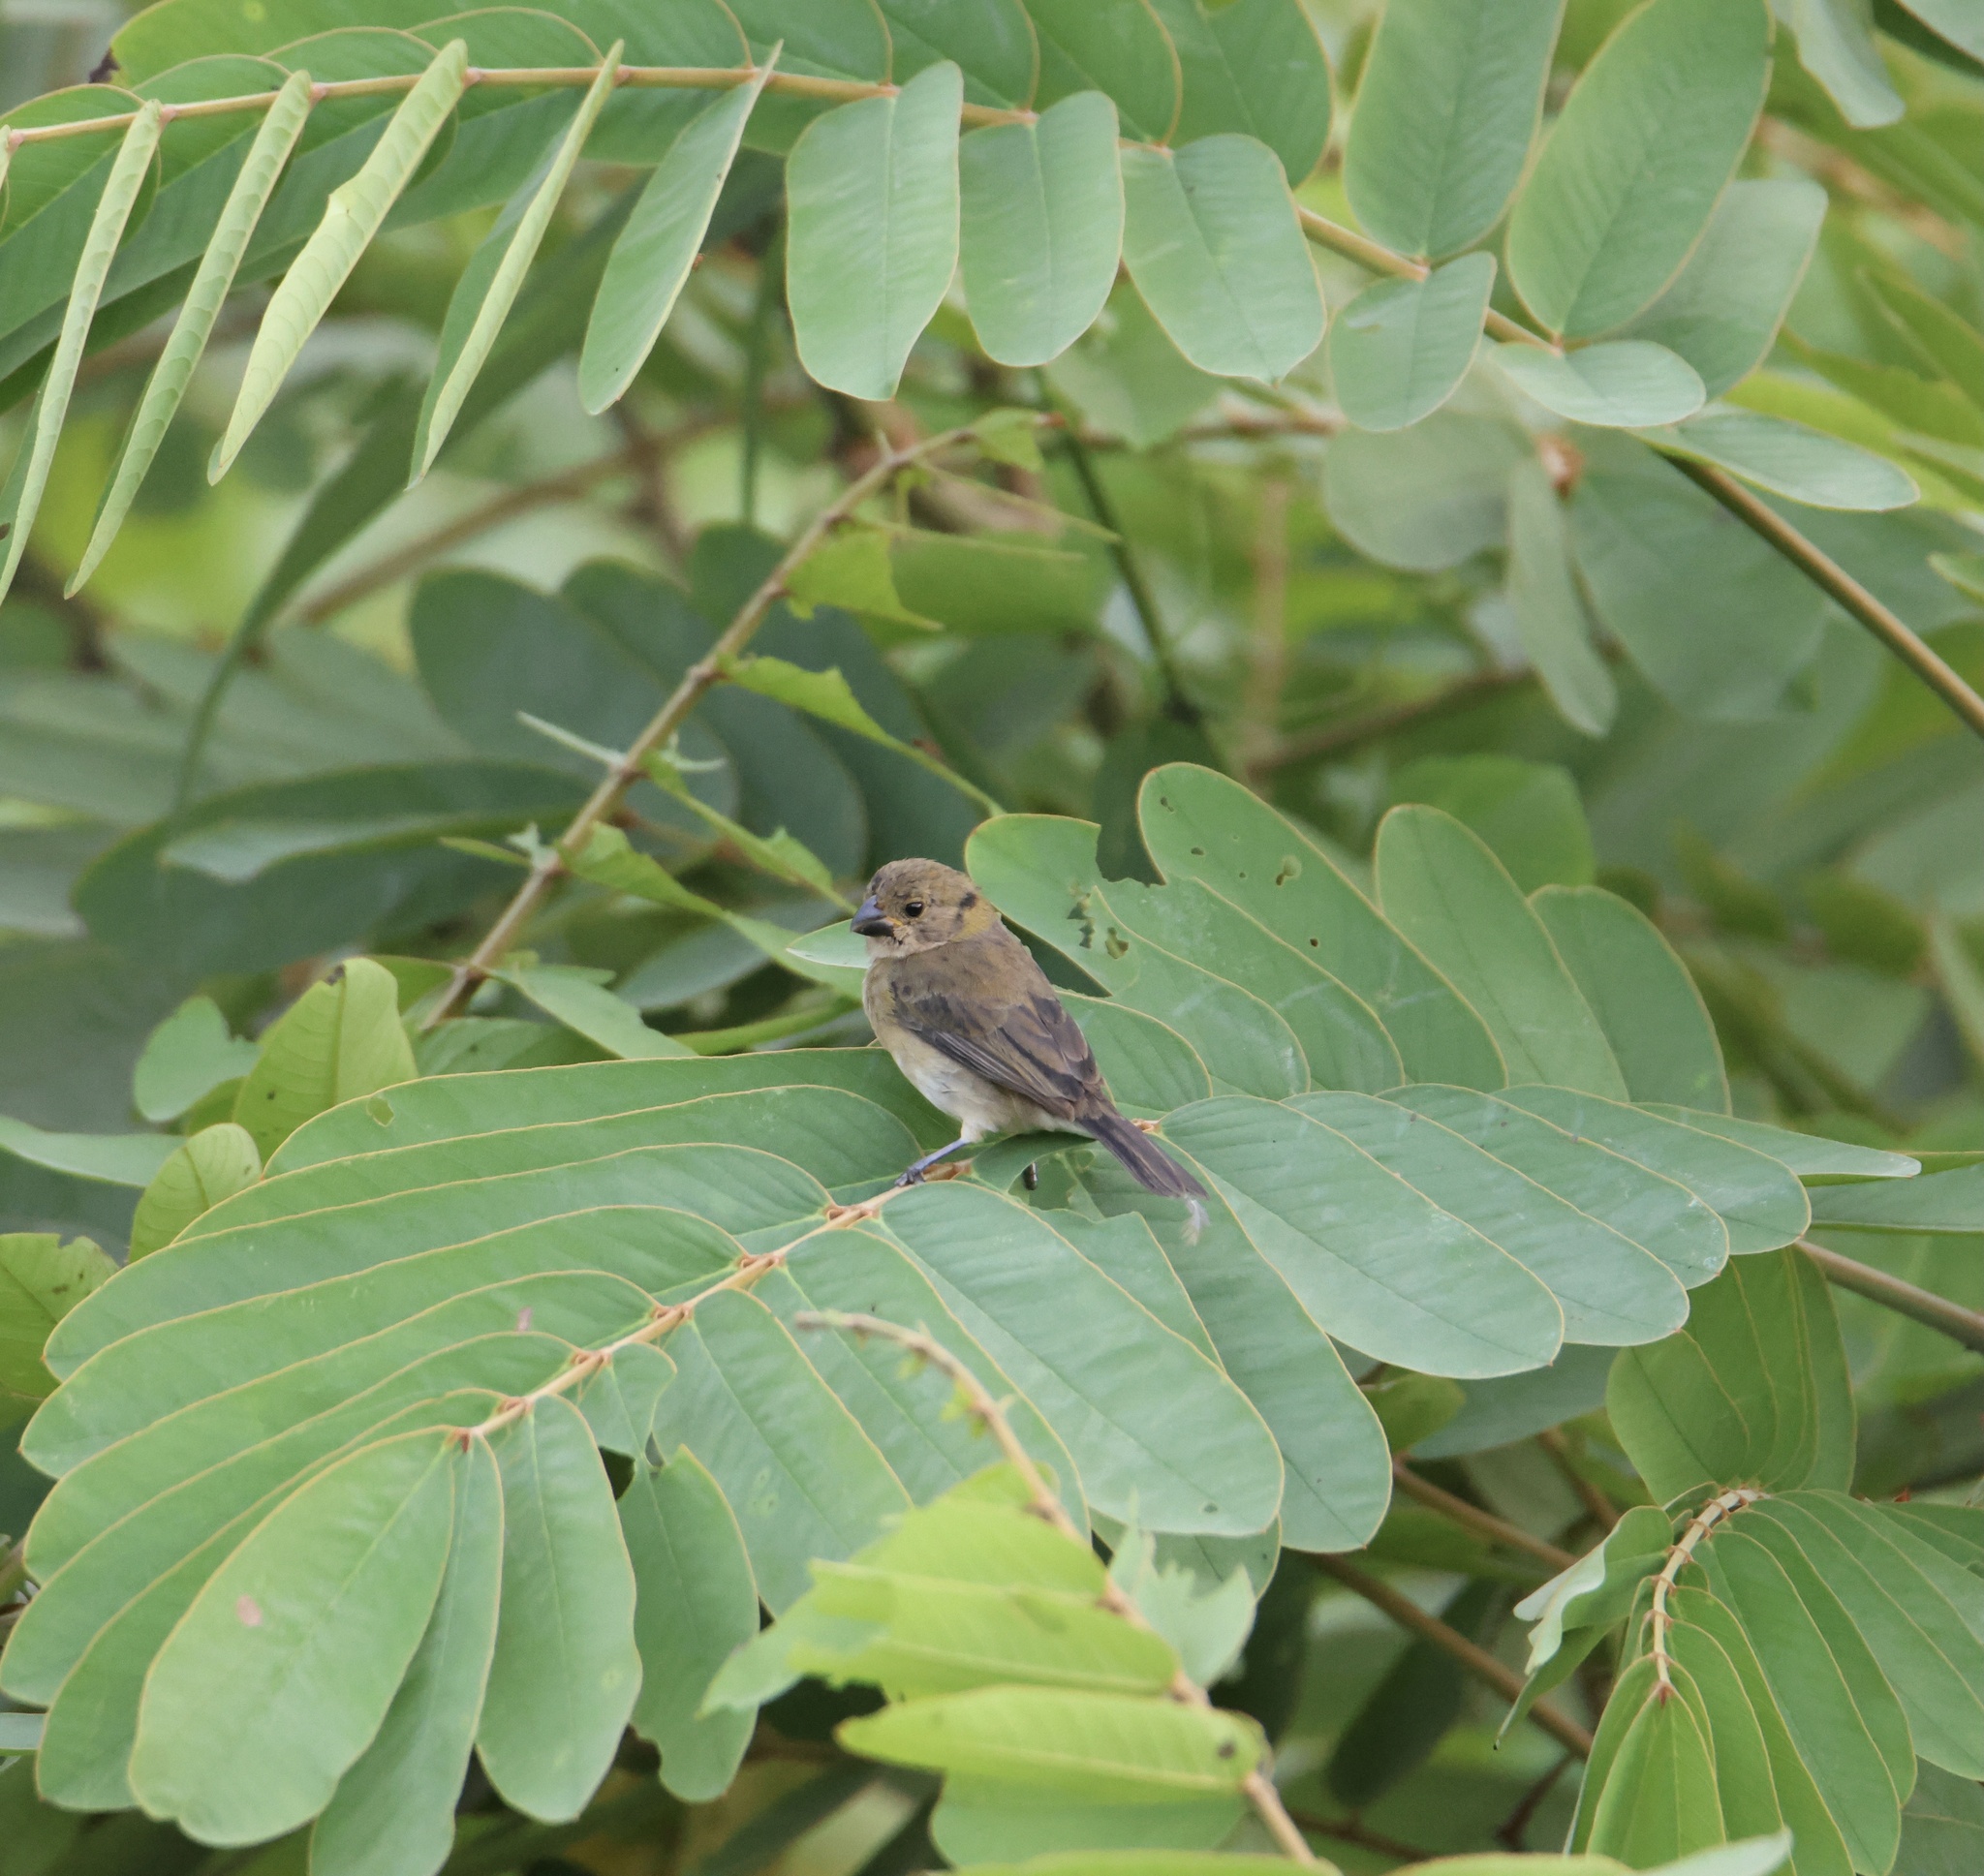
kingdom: Animalia
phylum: Chordata
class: Aves
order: Passeriformes
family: Thraupidae
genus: Sporophila
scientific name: Sporophila corvina
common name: Variable seedeater
